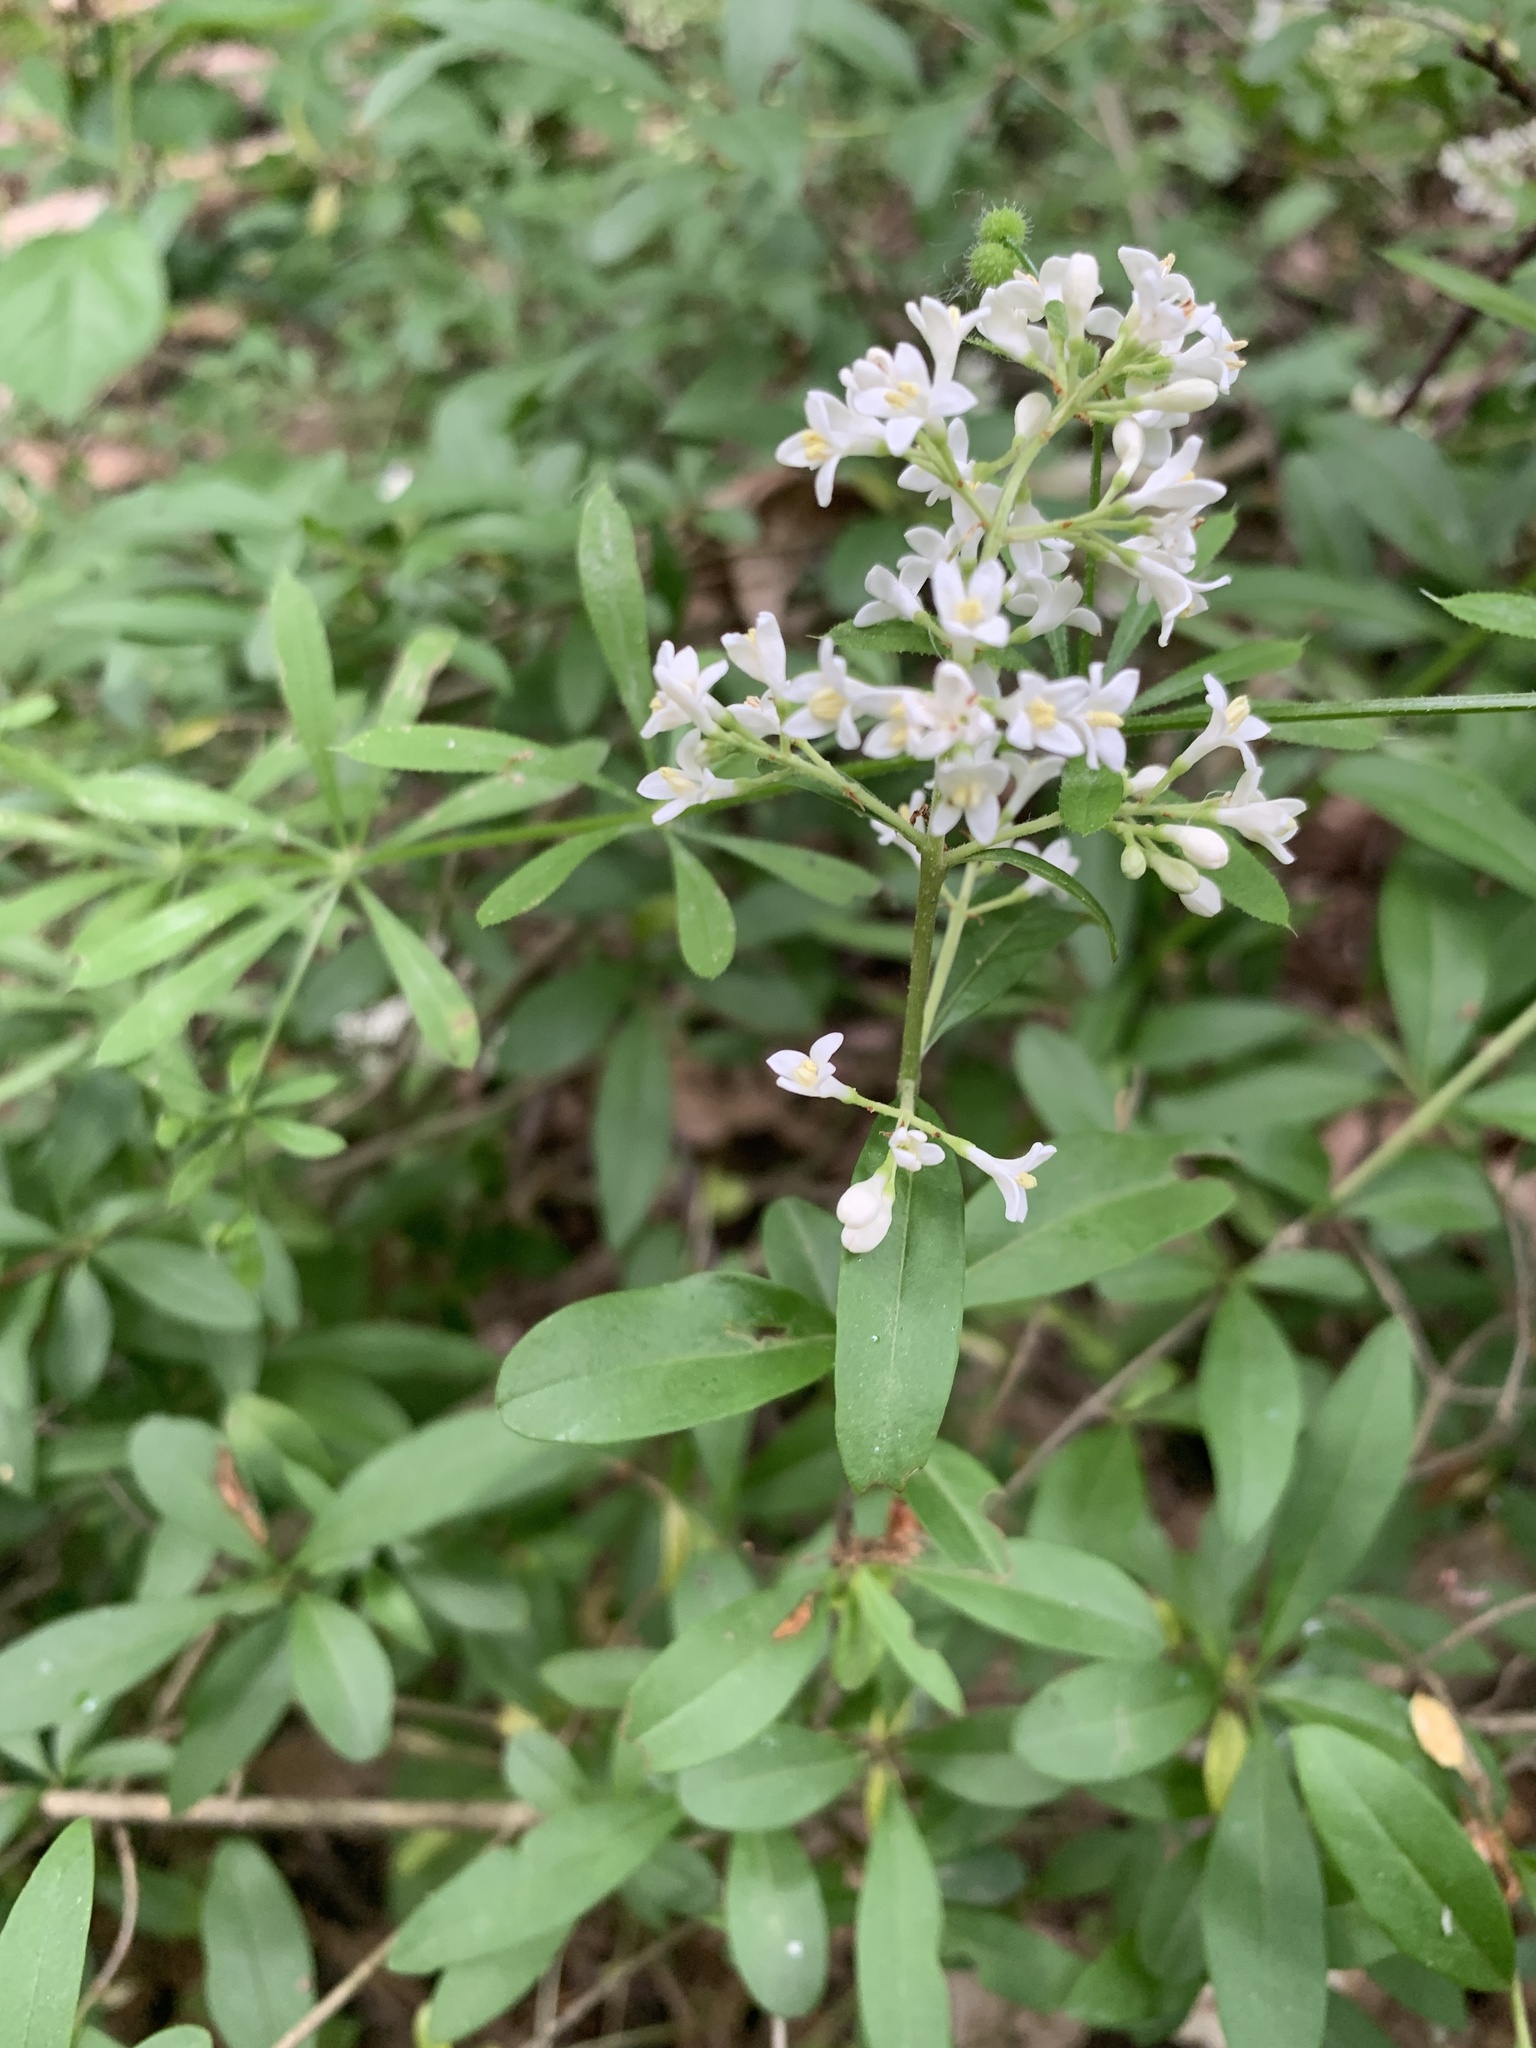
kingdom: Plantae
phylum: Tracheophyta
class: Magnoliopsida
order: Lamiales
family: Oleaceae
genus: Ligustrum
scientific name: Ligustrum vulgare
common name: Wild privet
